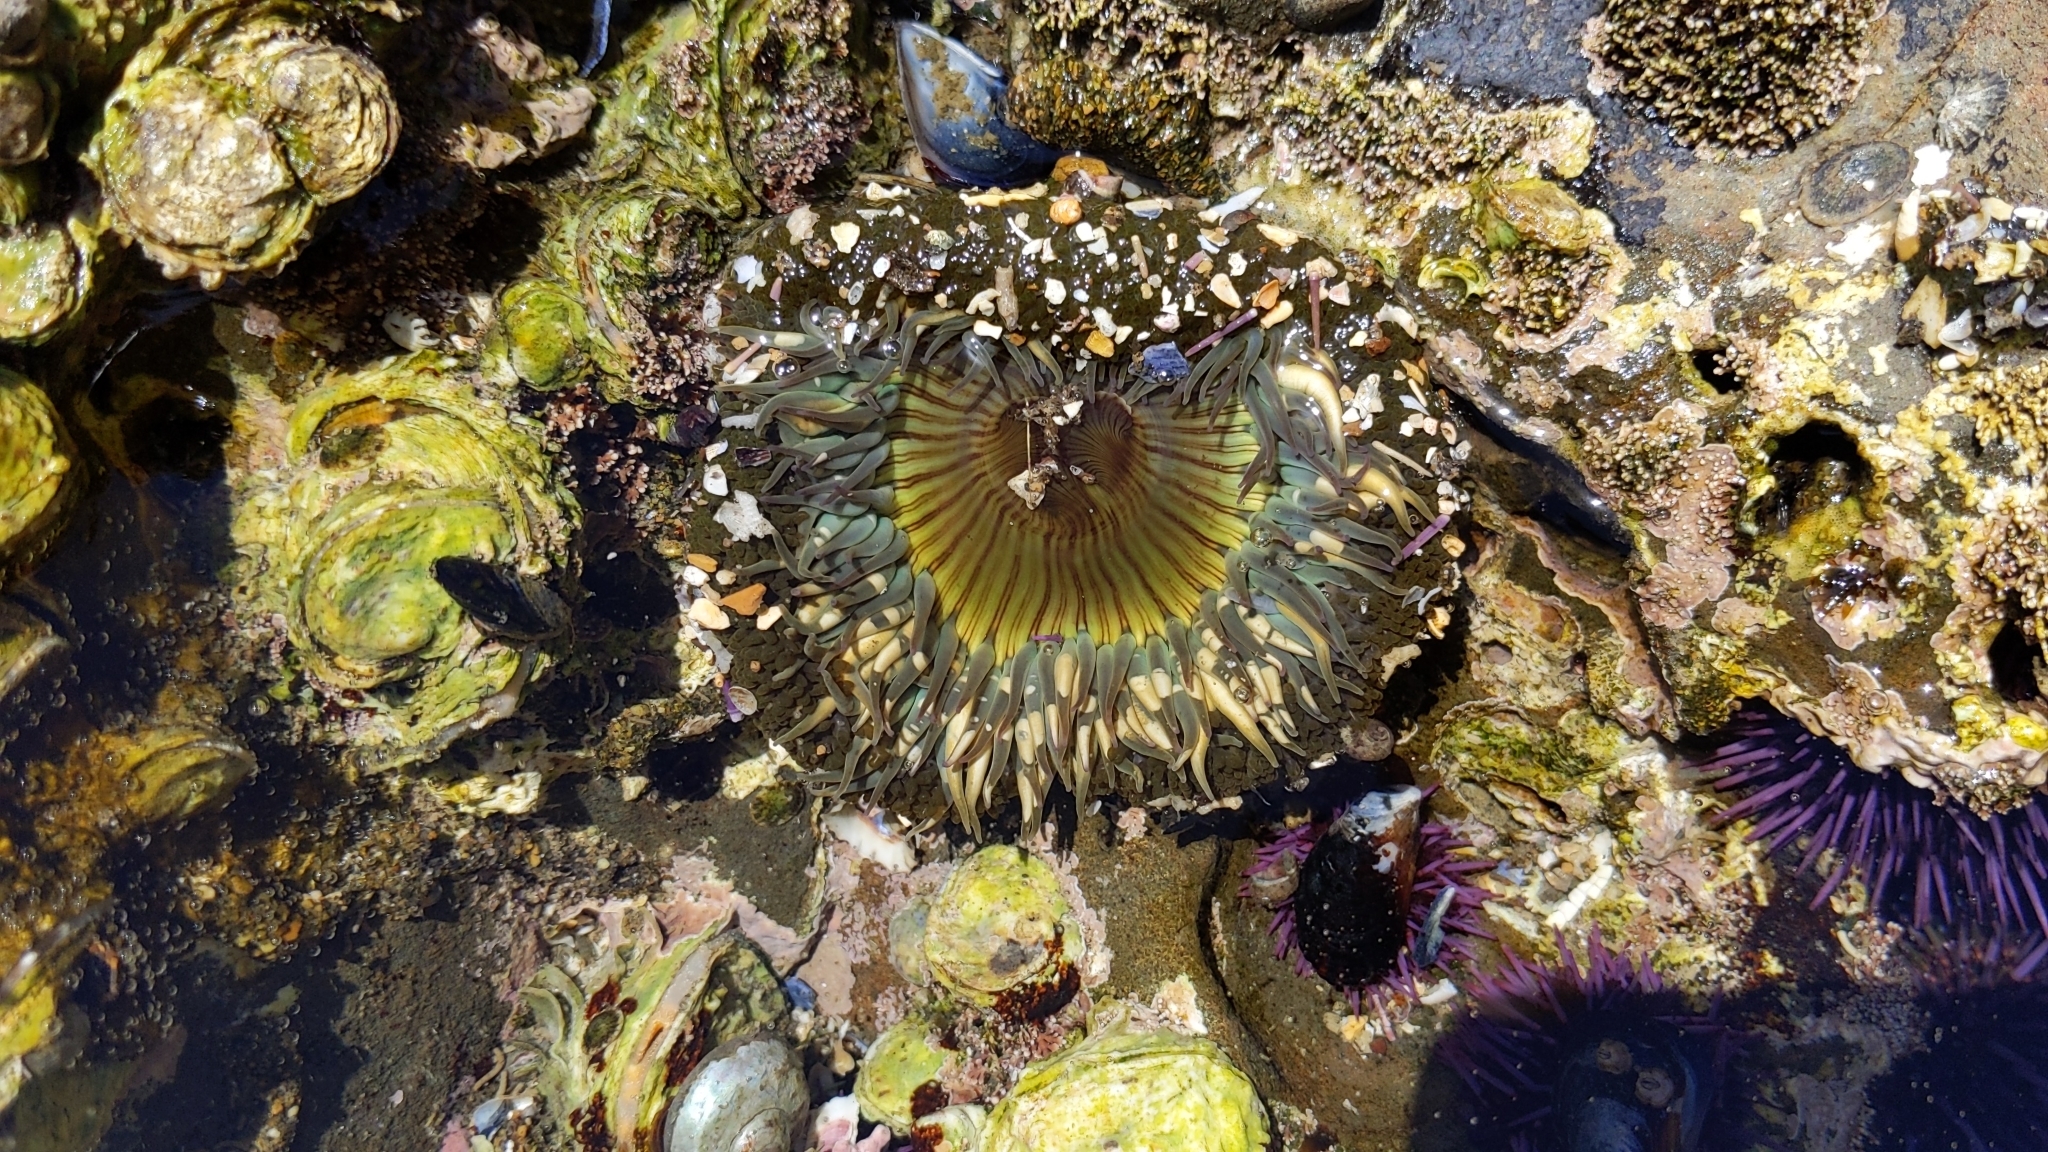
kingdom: Animalia
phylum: Cnidaria
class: Anthozoa
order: Actiniaria
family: Actiniidae
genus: Anthopleura
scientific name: Anthopleura sola
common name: Sun anemone
